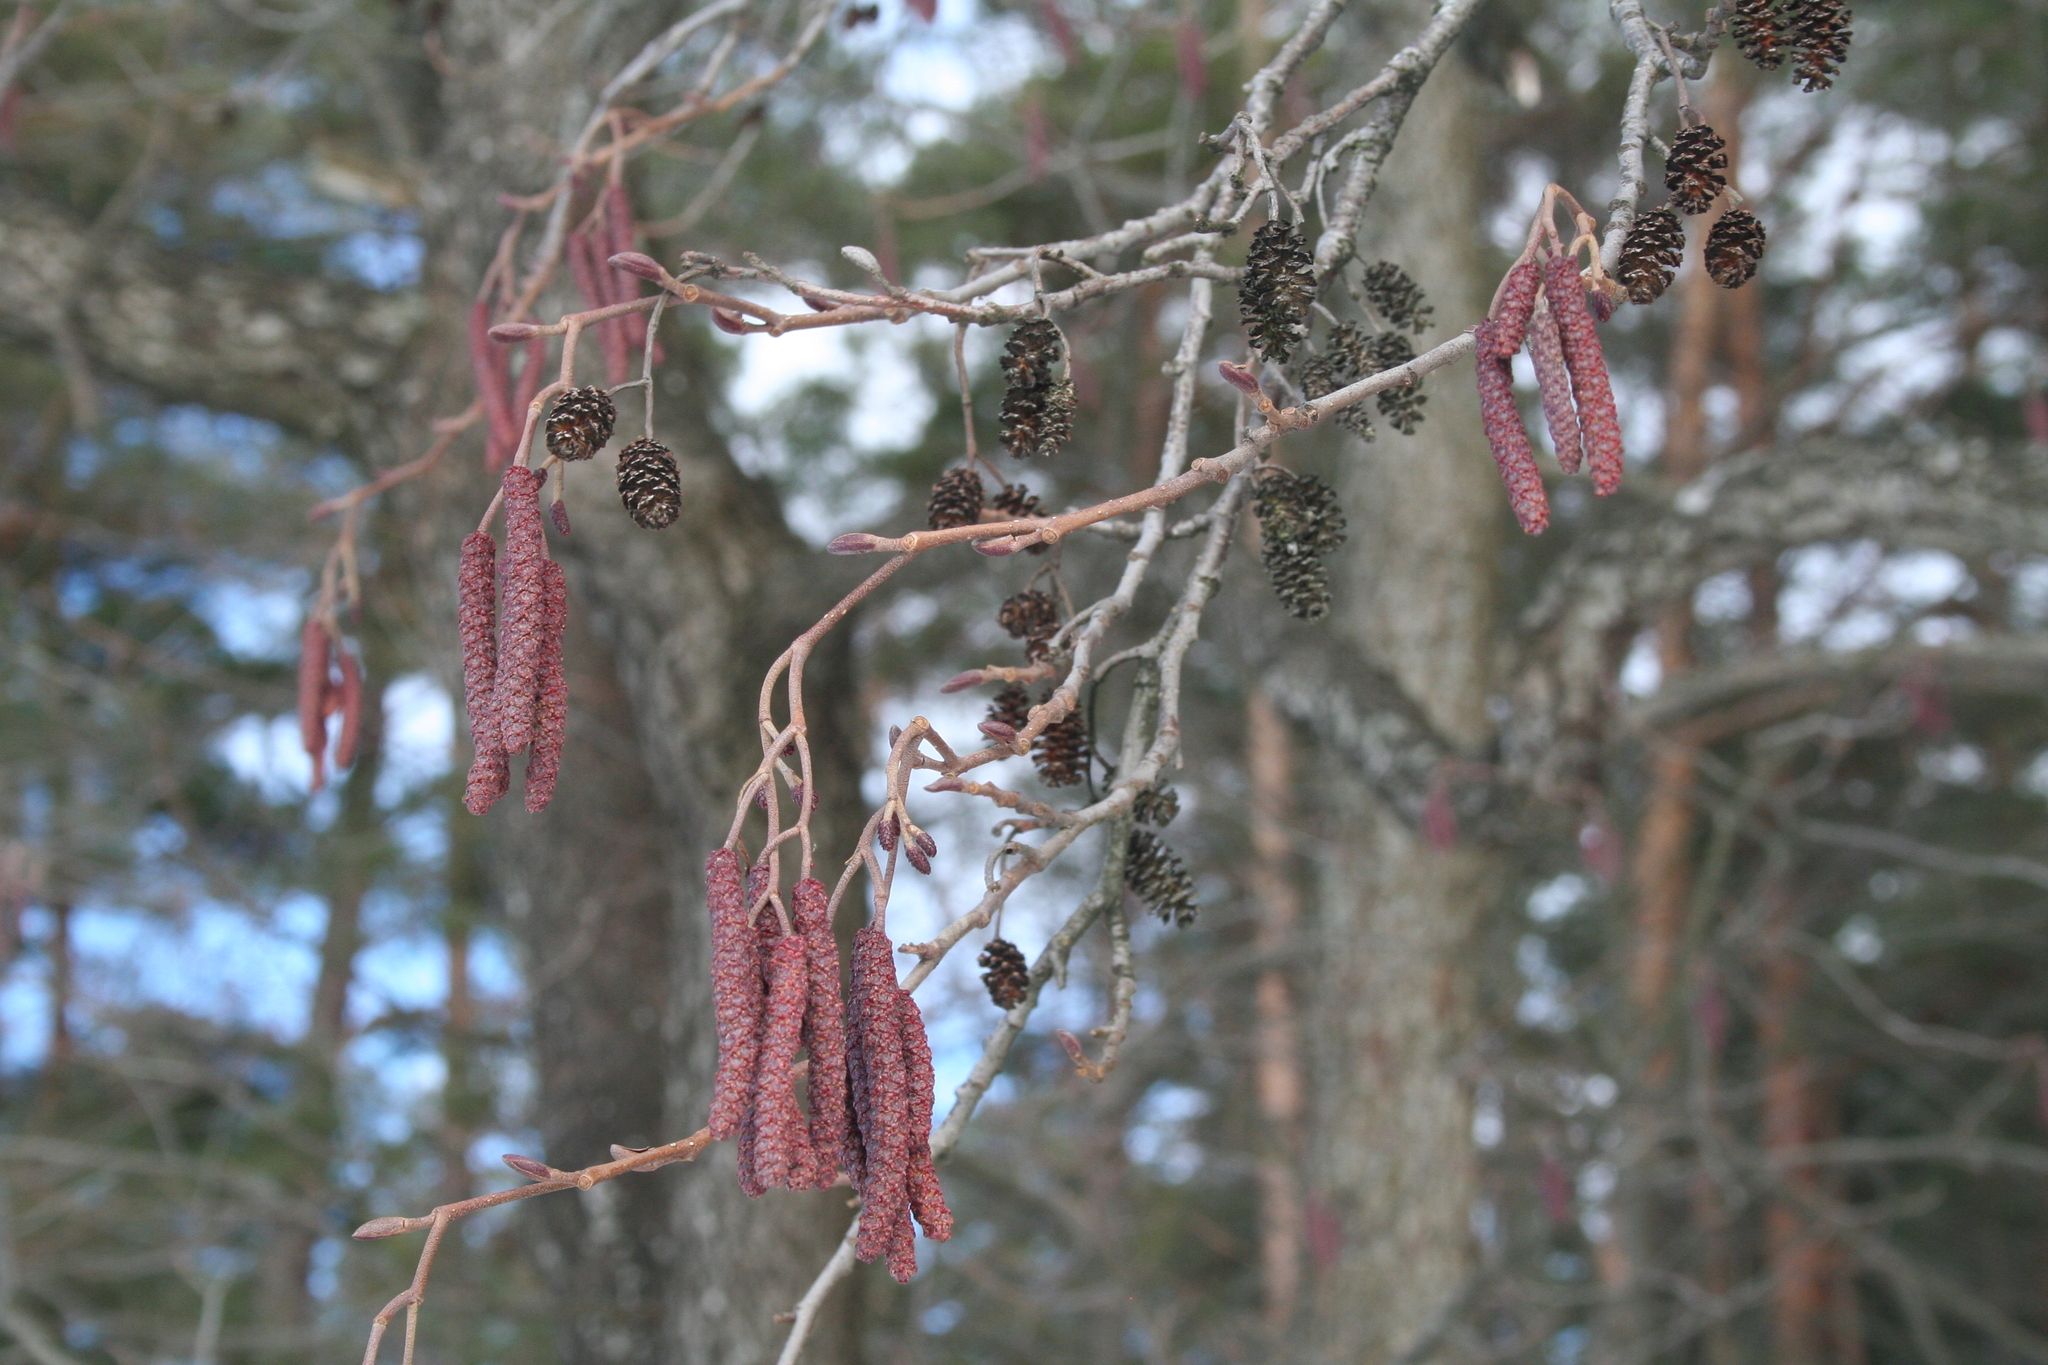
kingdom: Plantae
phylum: Tracheophyta
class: Magnoliopsida
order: Fagales
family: Betulaceae
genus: Alnus
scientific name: Alnus glutinosa
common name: Black alder
